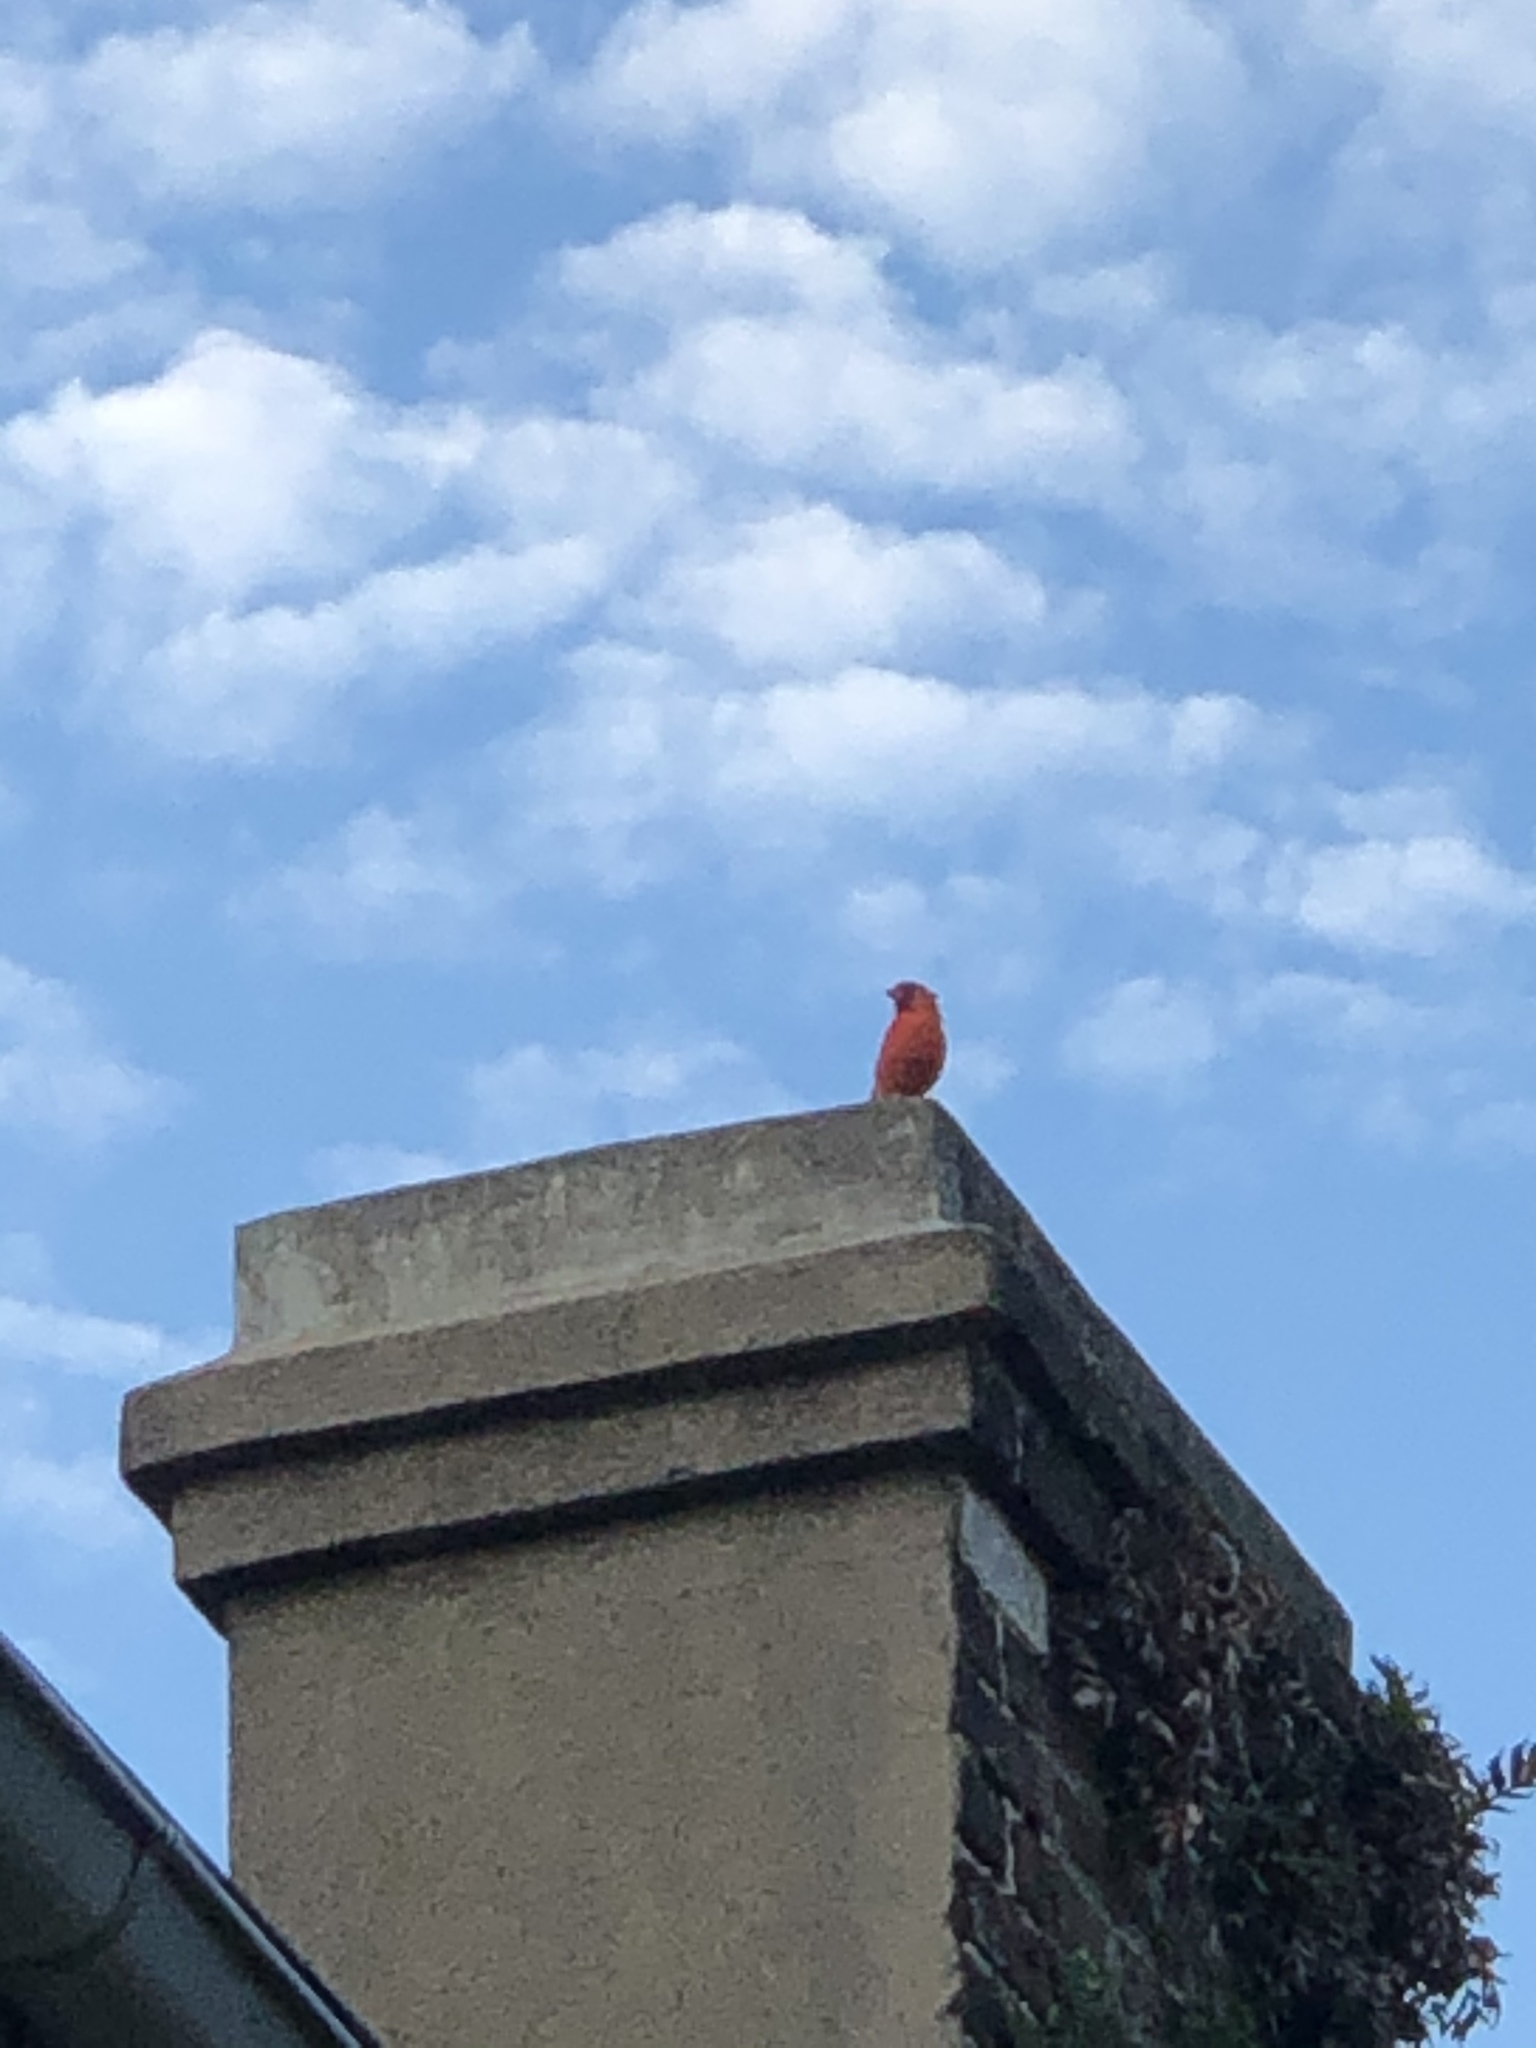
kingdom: Animalia
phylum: Chordata
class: Aves
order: Passeriformes
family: Cardinalidae
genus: Cardinalis
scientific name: Cardinalis cardinalis
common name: Northern cardinal
